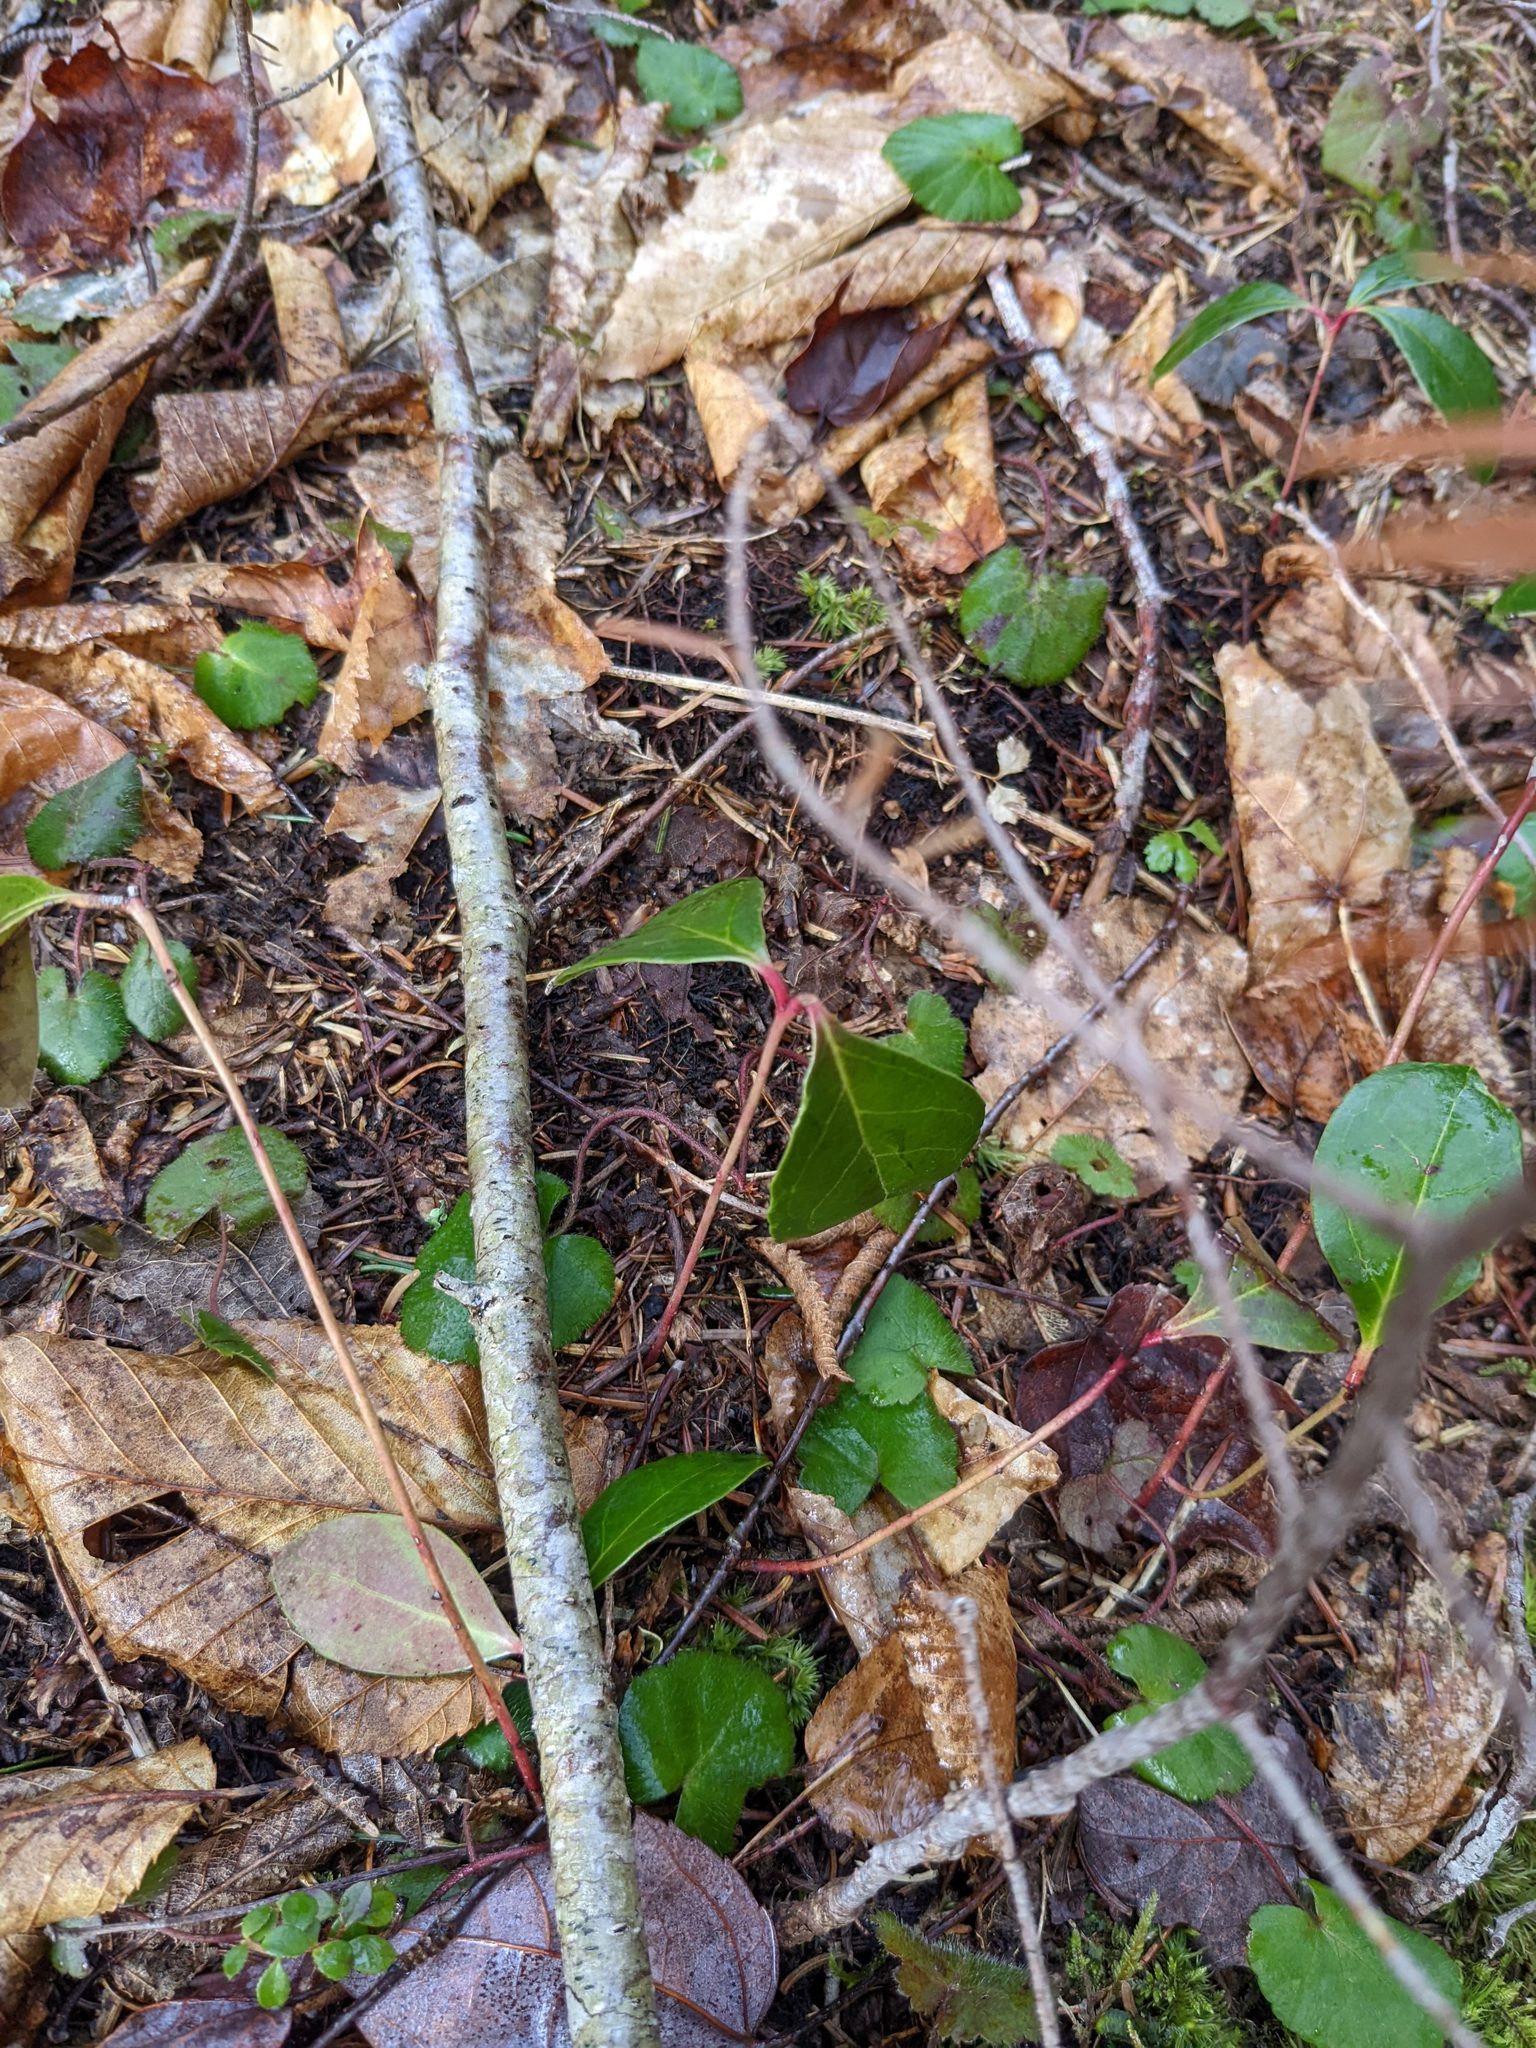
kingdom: Plantae
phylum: Tracheophyta
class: Magnoliopsida
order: Ericales
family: Ericaceae
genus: Gaultheria
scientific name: Gaultheria procumbens
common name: Checkerberry
